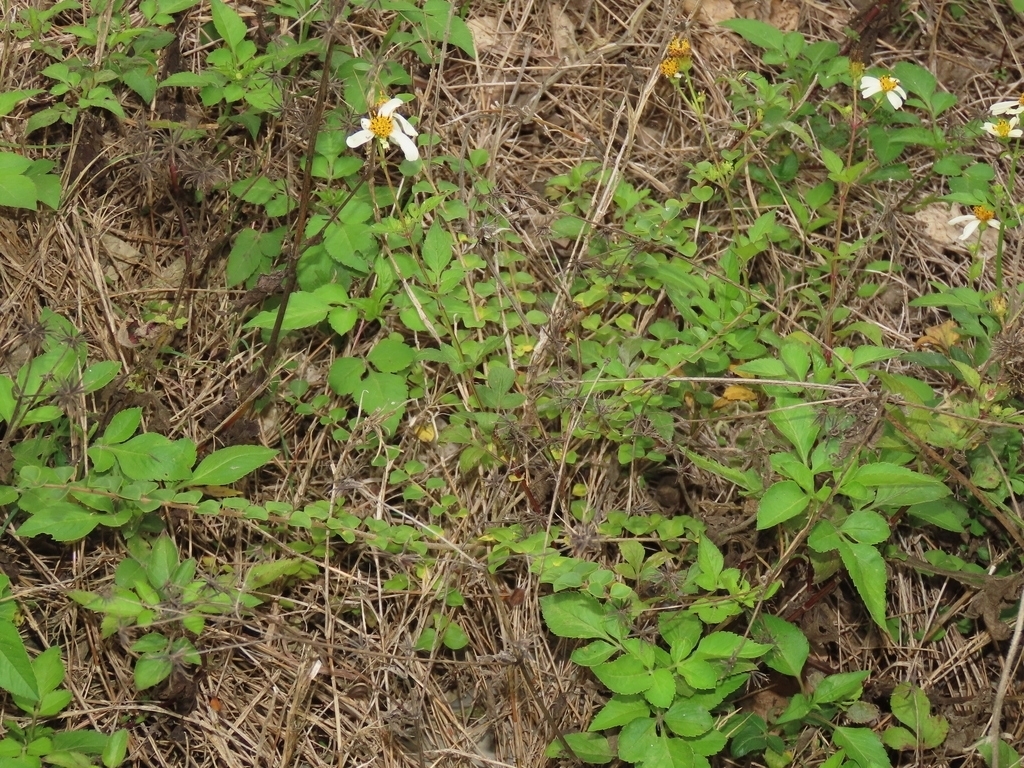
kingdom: Plantae
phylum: Tracheophyta
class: Magnoliopsida
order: Asterales
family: Asteraceae
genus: Bidens
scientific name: Bidens alba
